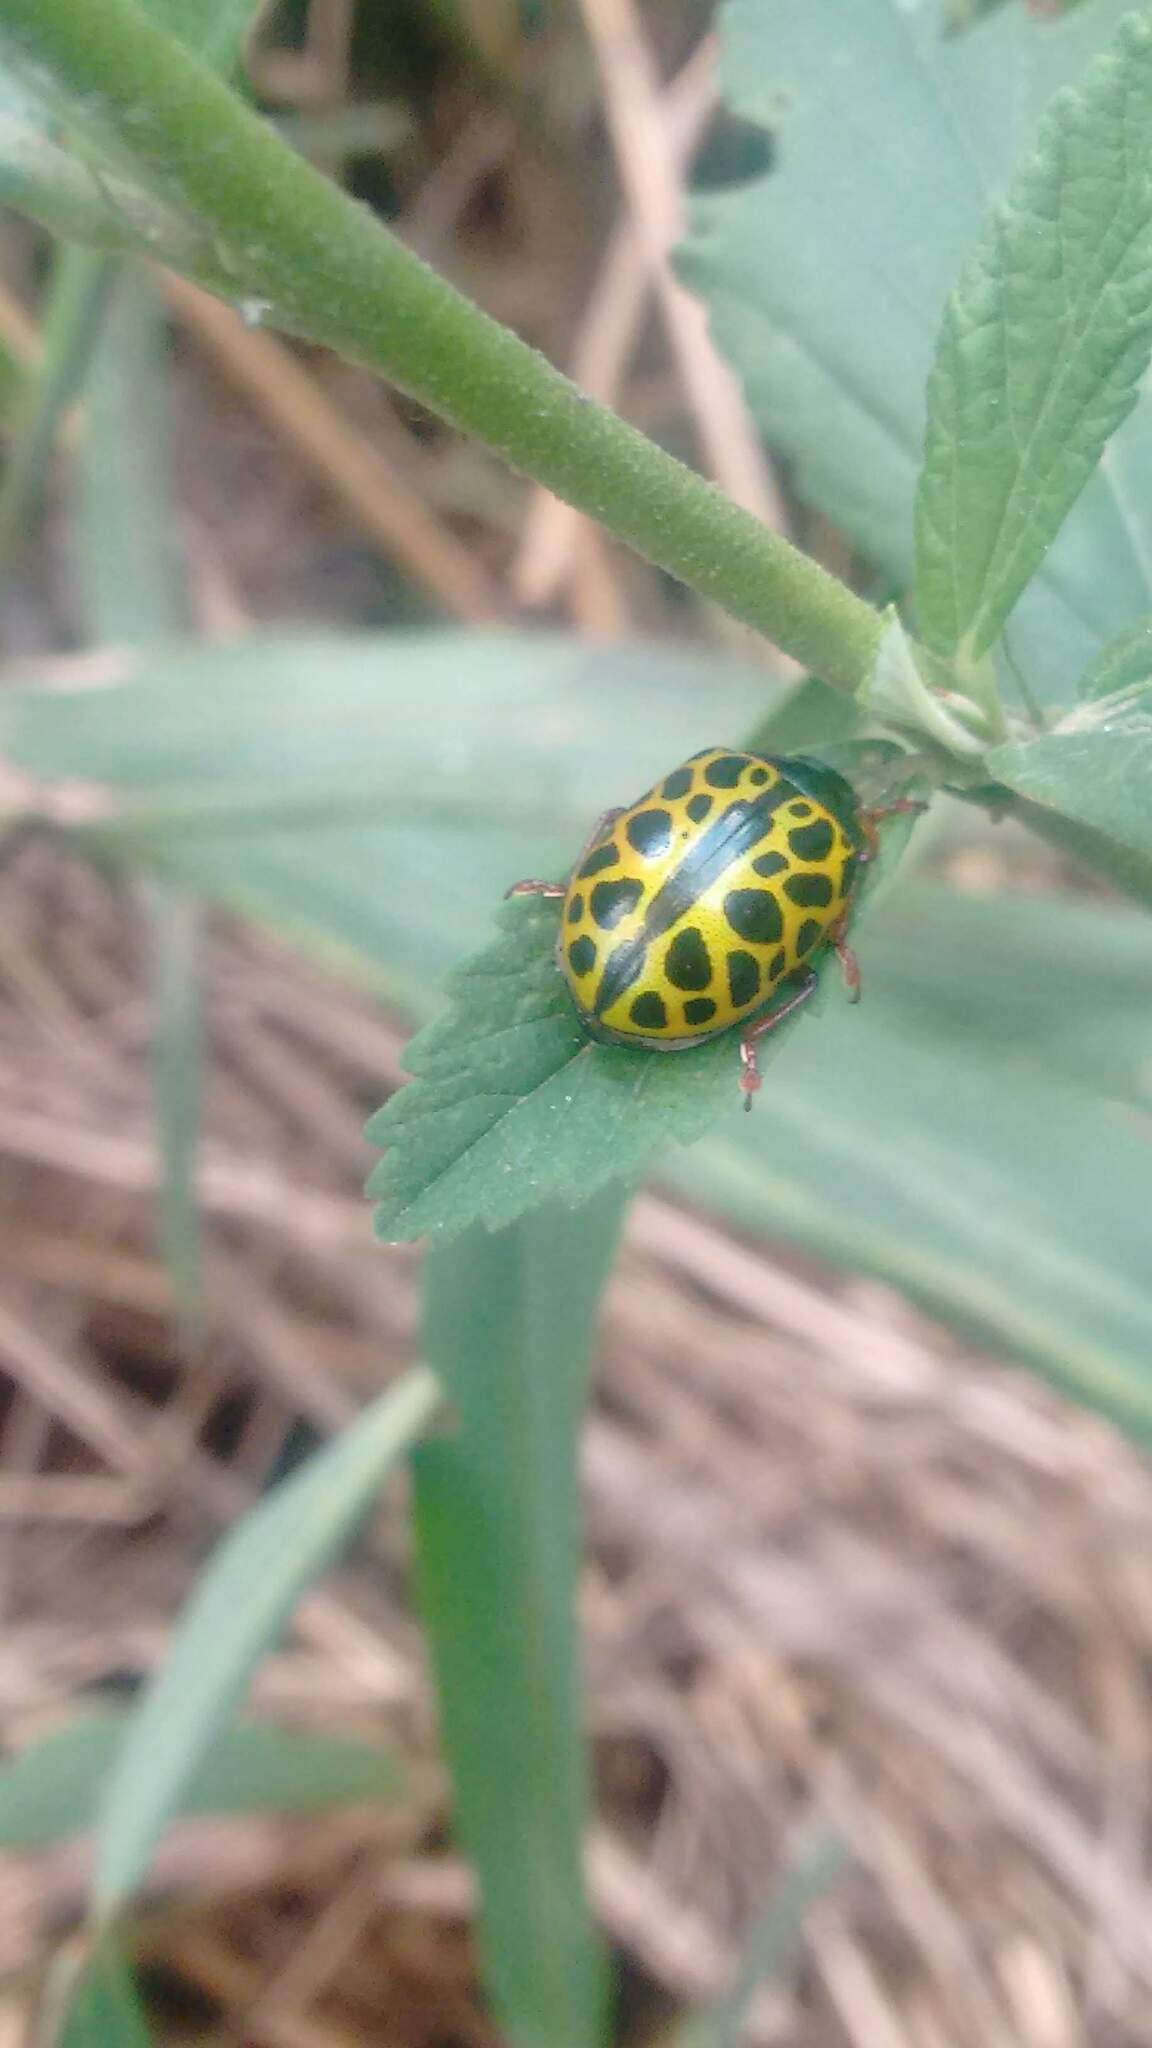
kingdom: Animalia
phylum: Arthropoda
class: Insecta
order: Coleoptera
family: Chrysomelidae
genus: Calligrapha
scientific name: Calligrapha polyspila
